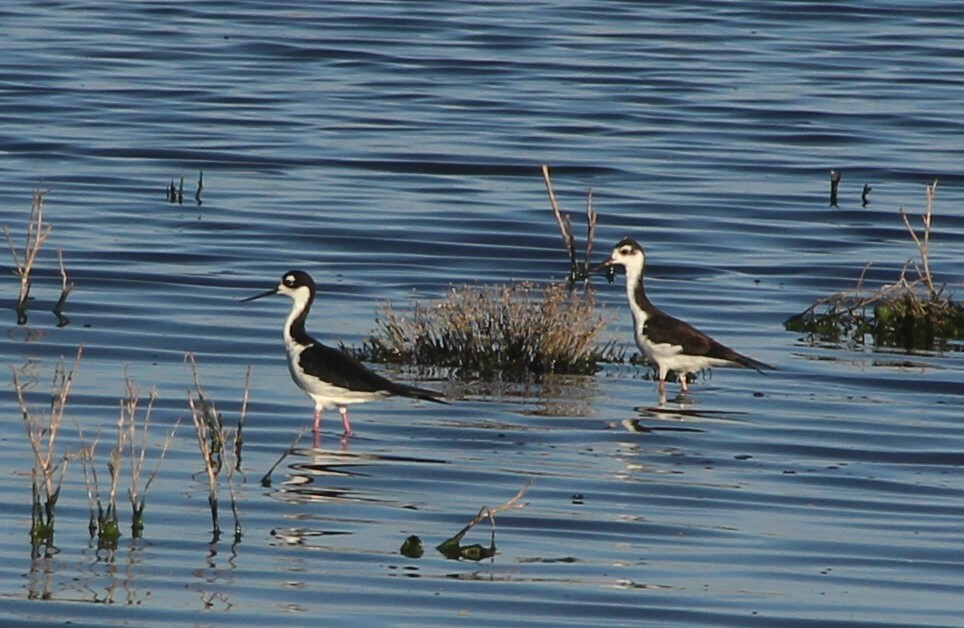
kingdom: Animalia
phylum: Chordata
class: Aves
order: Charadriiformes
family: Recurvirostridae
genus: Himantopus
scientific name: Himantopus mexicanus
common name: Black-necked stilt
